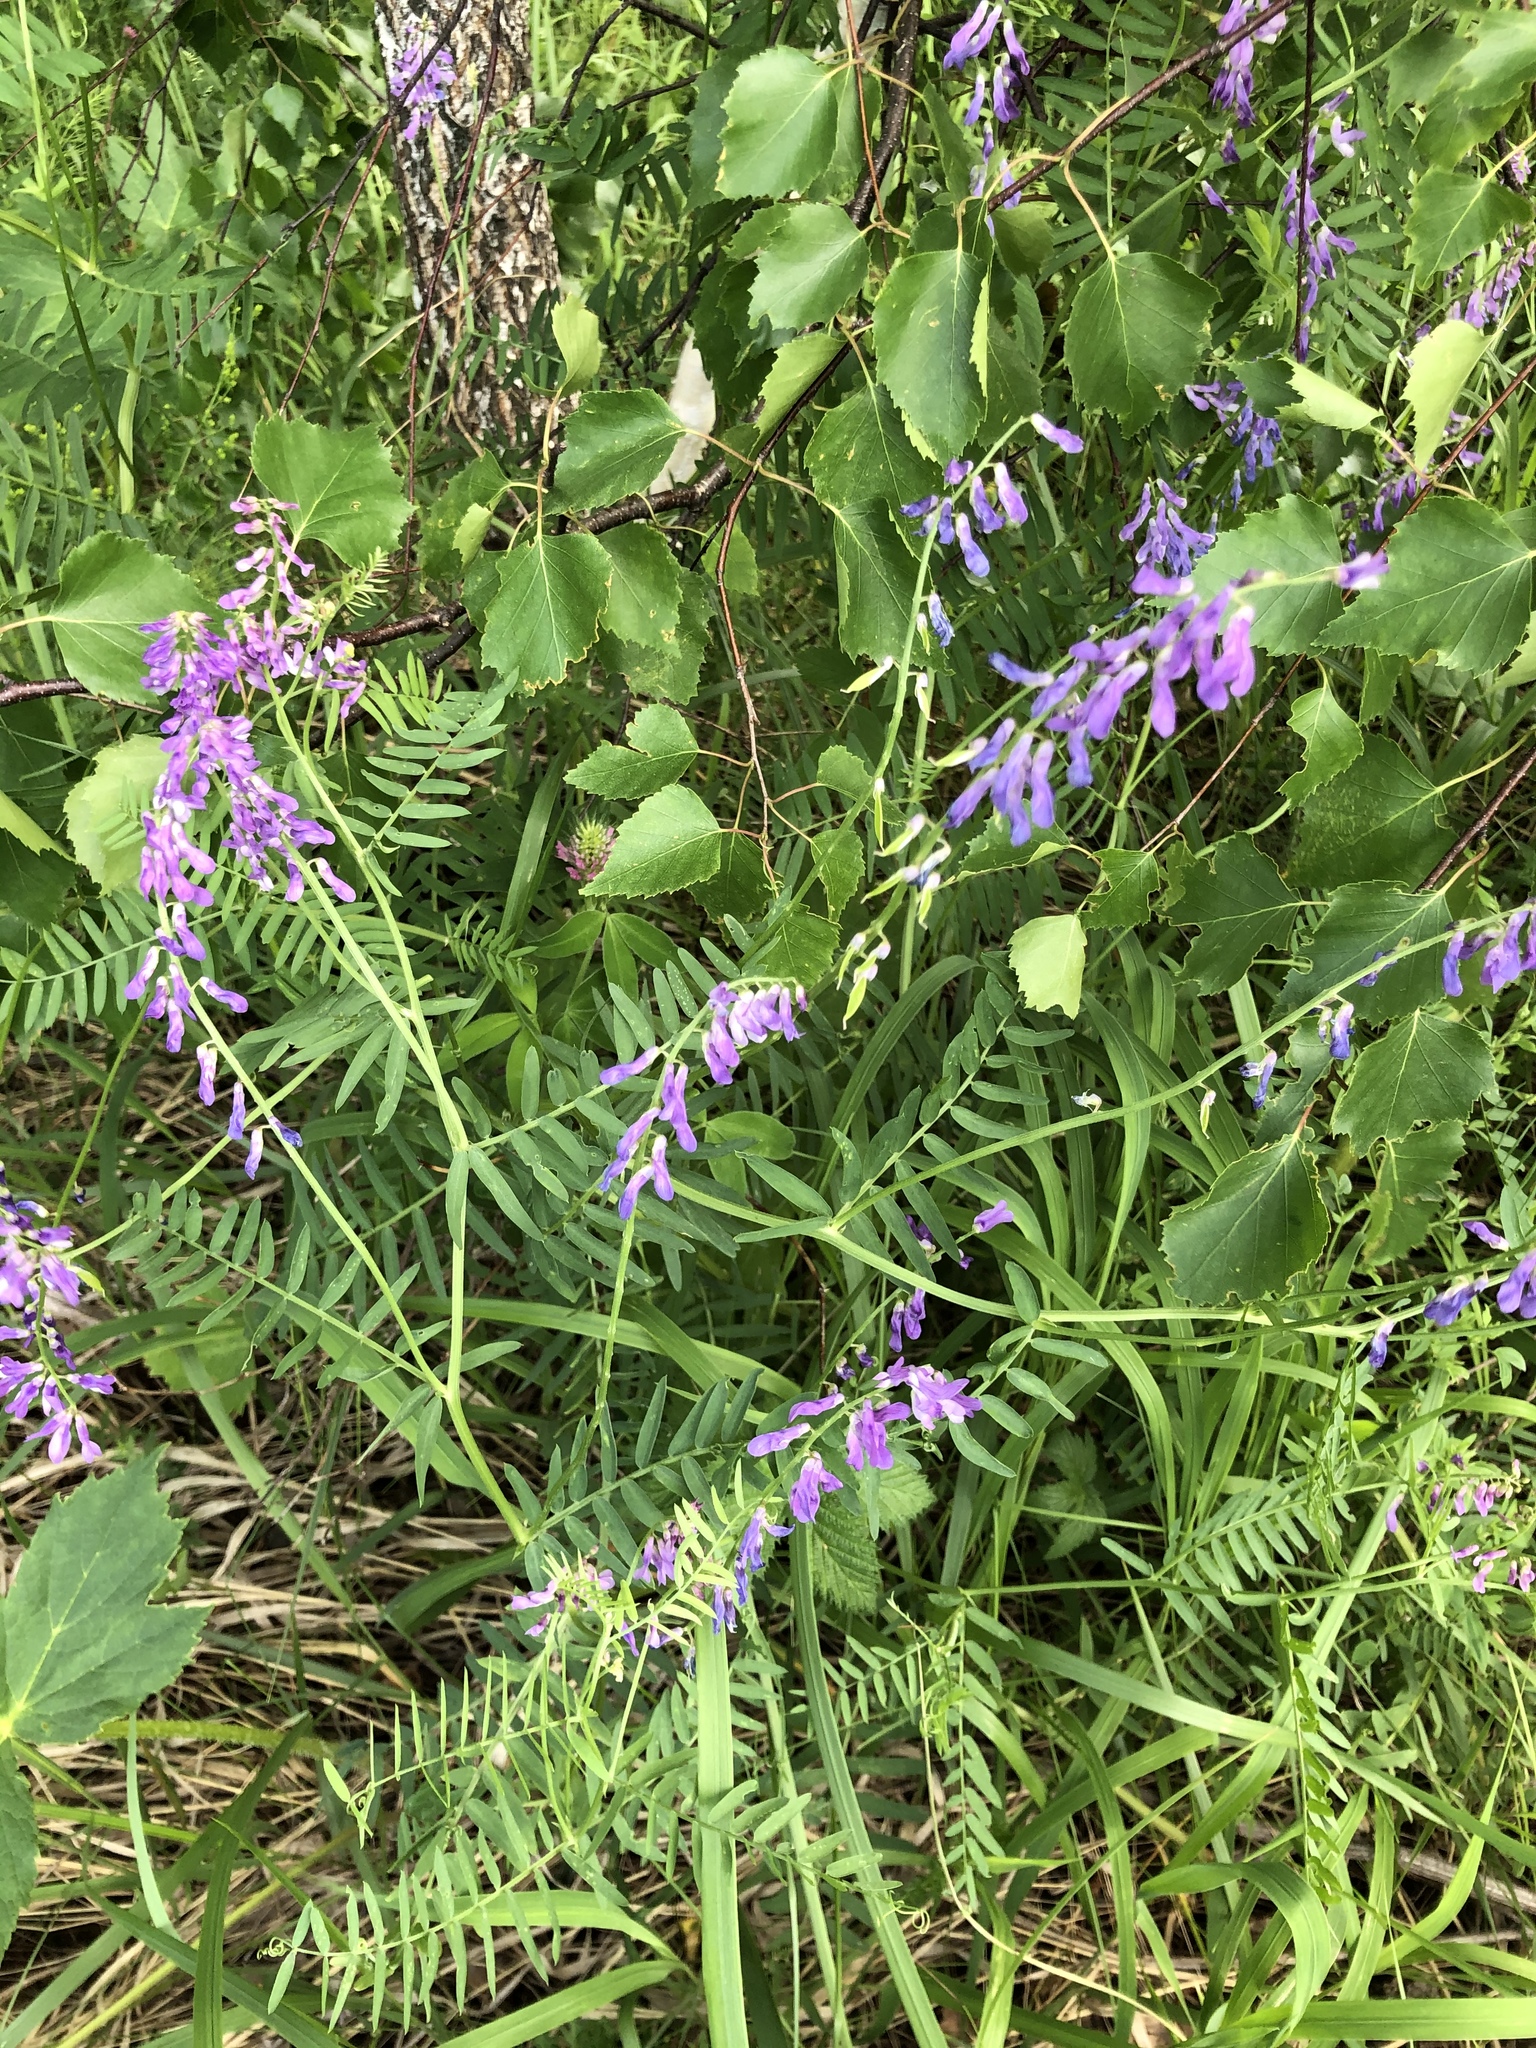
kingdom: Plantae
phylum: Tracheophyta
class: Magnoliopsida
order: Fabales
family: Fabaceae
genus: Vicia
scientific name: Vicia cracca
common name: Bird vetch
